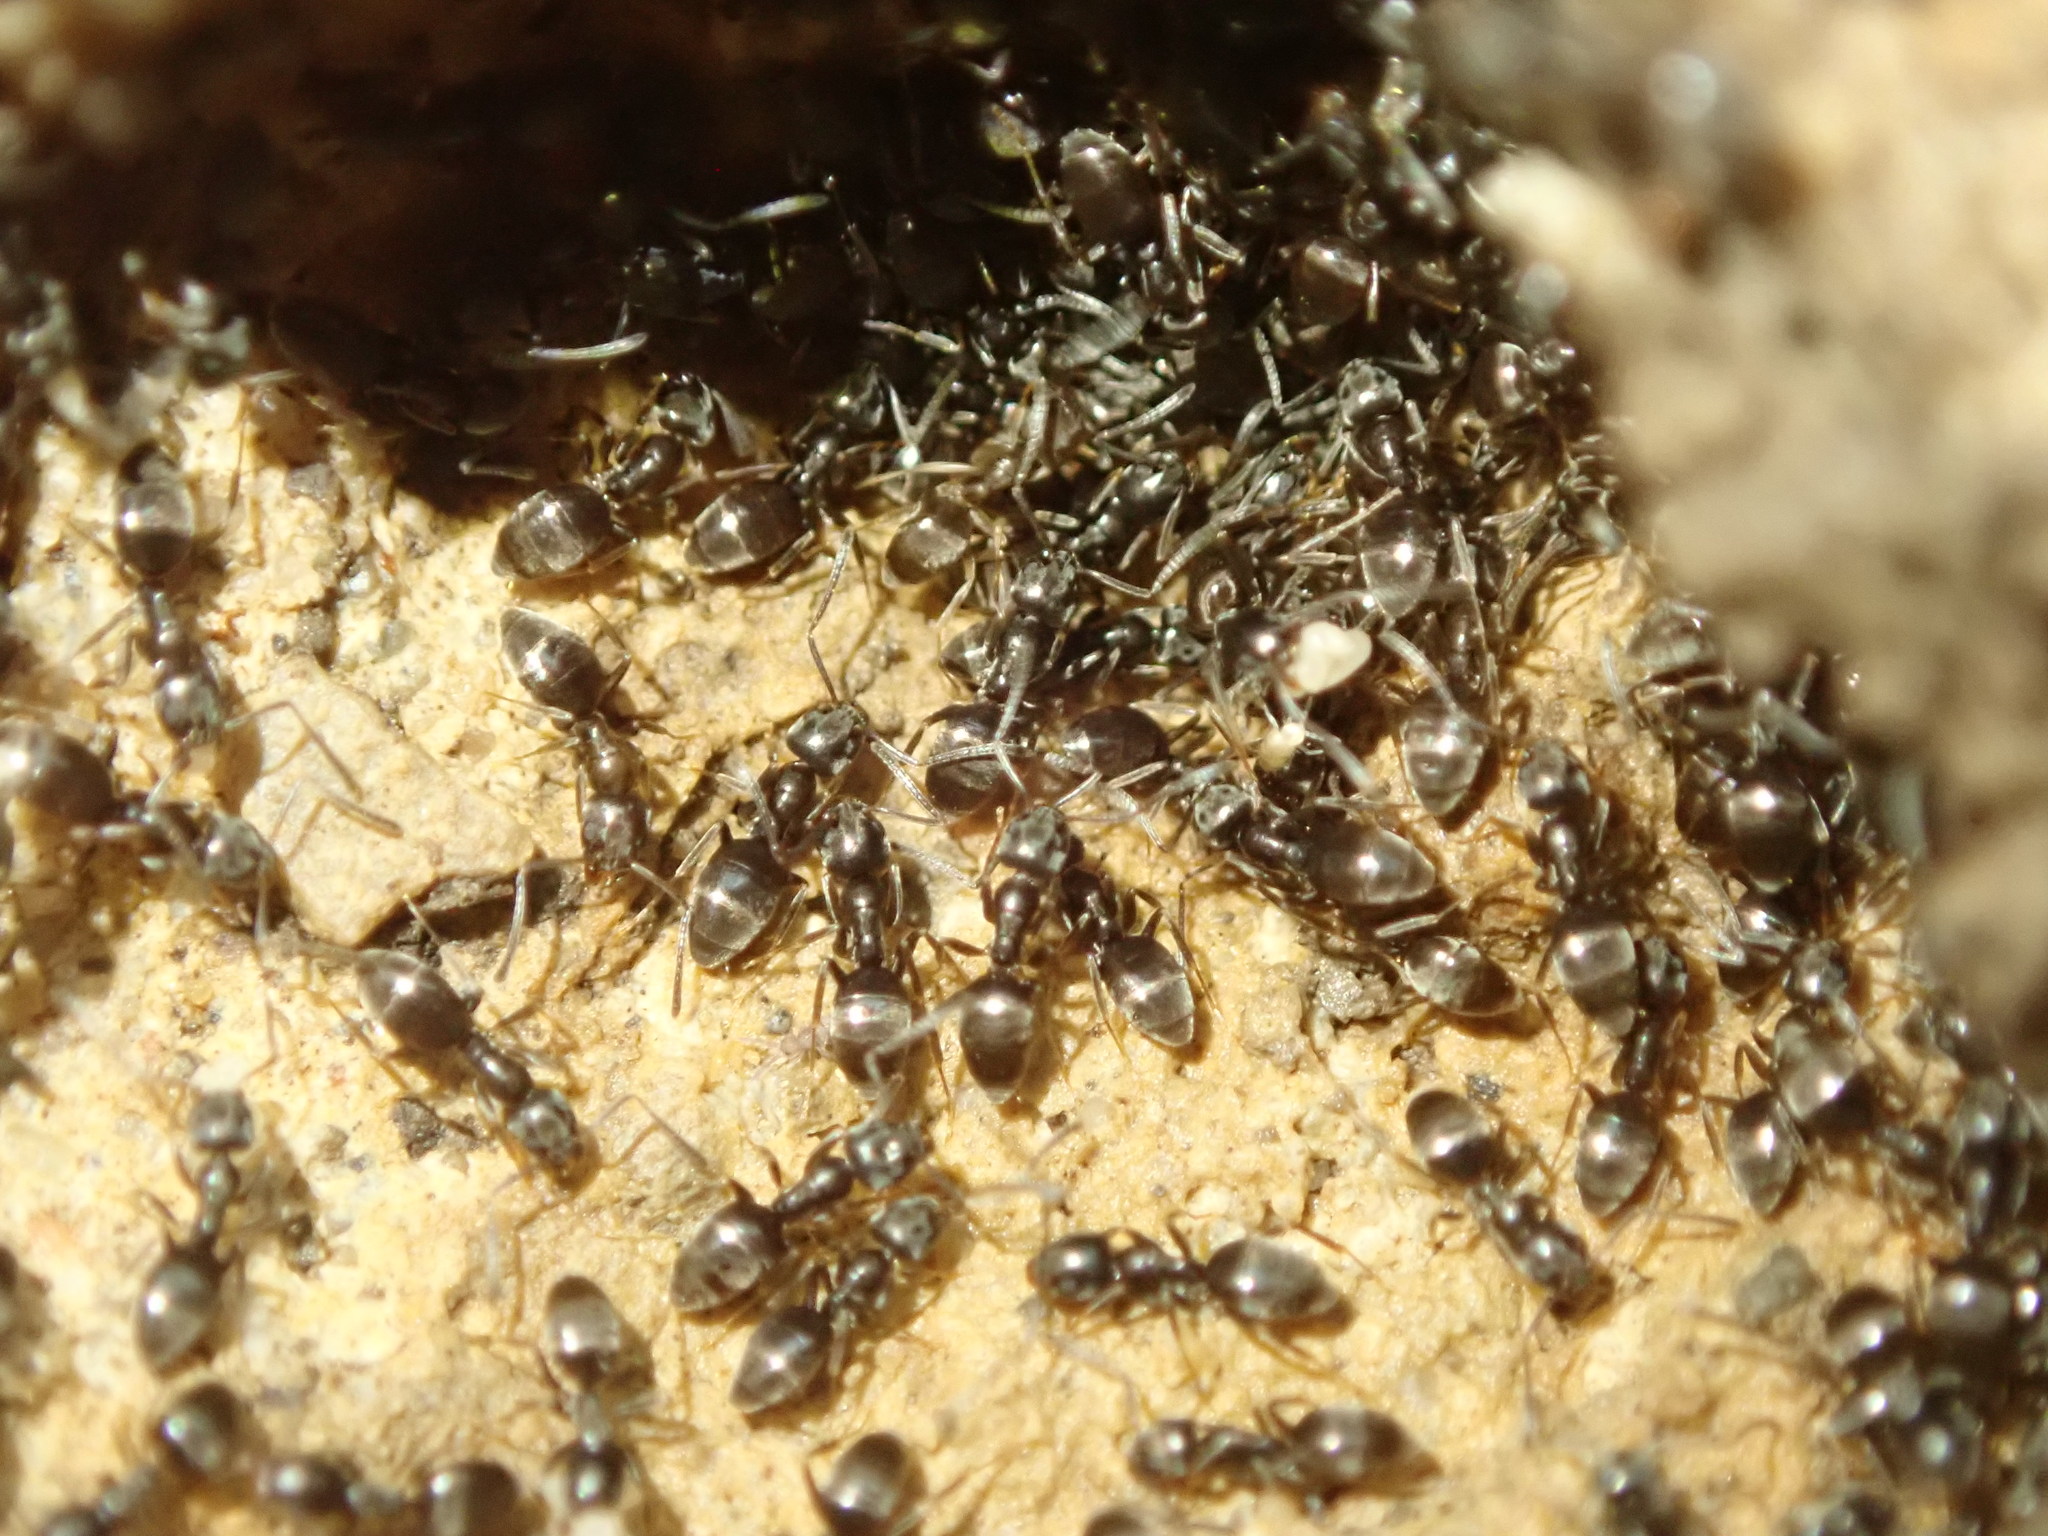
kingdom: Animalia
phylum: Arthropoda
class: Insecta
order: Hymenoptera
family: Formicidae
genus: Tapinoma
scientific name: Tapinoma sessile
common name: Odorous house ant
